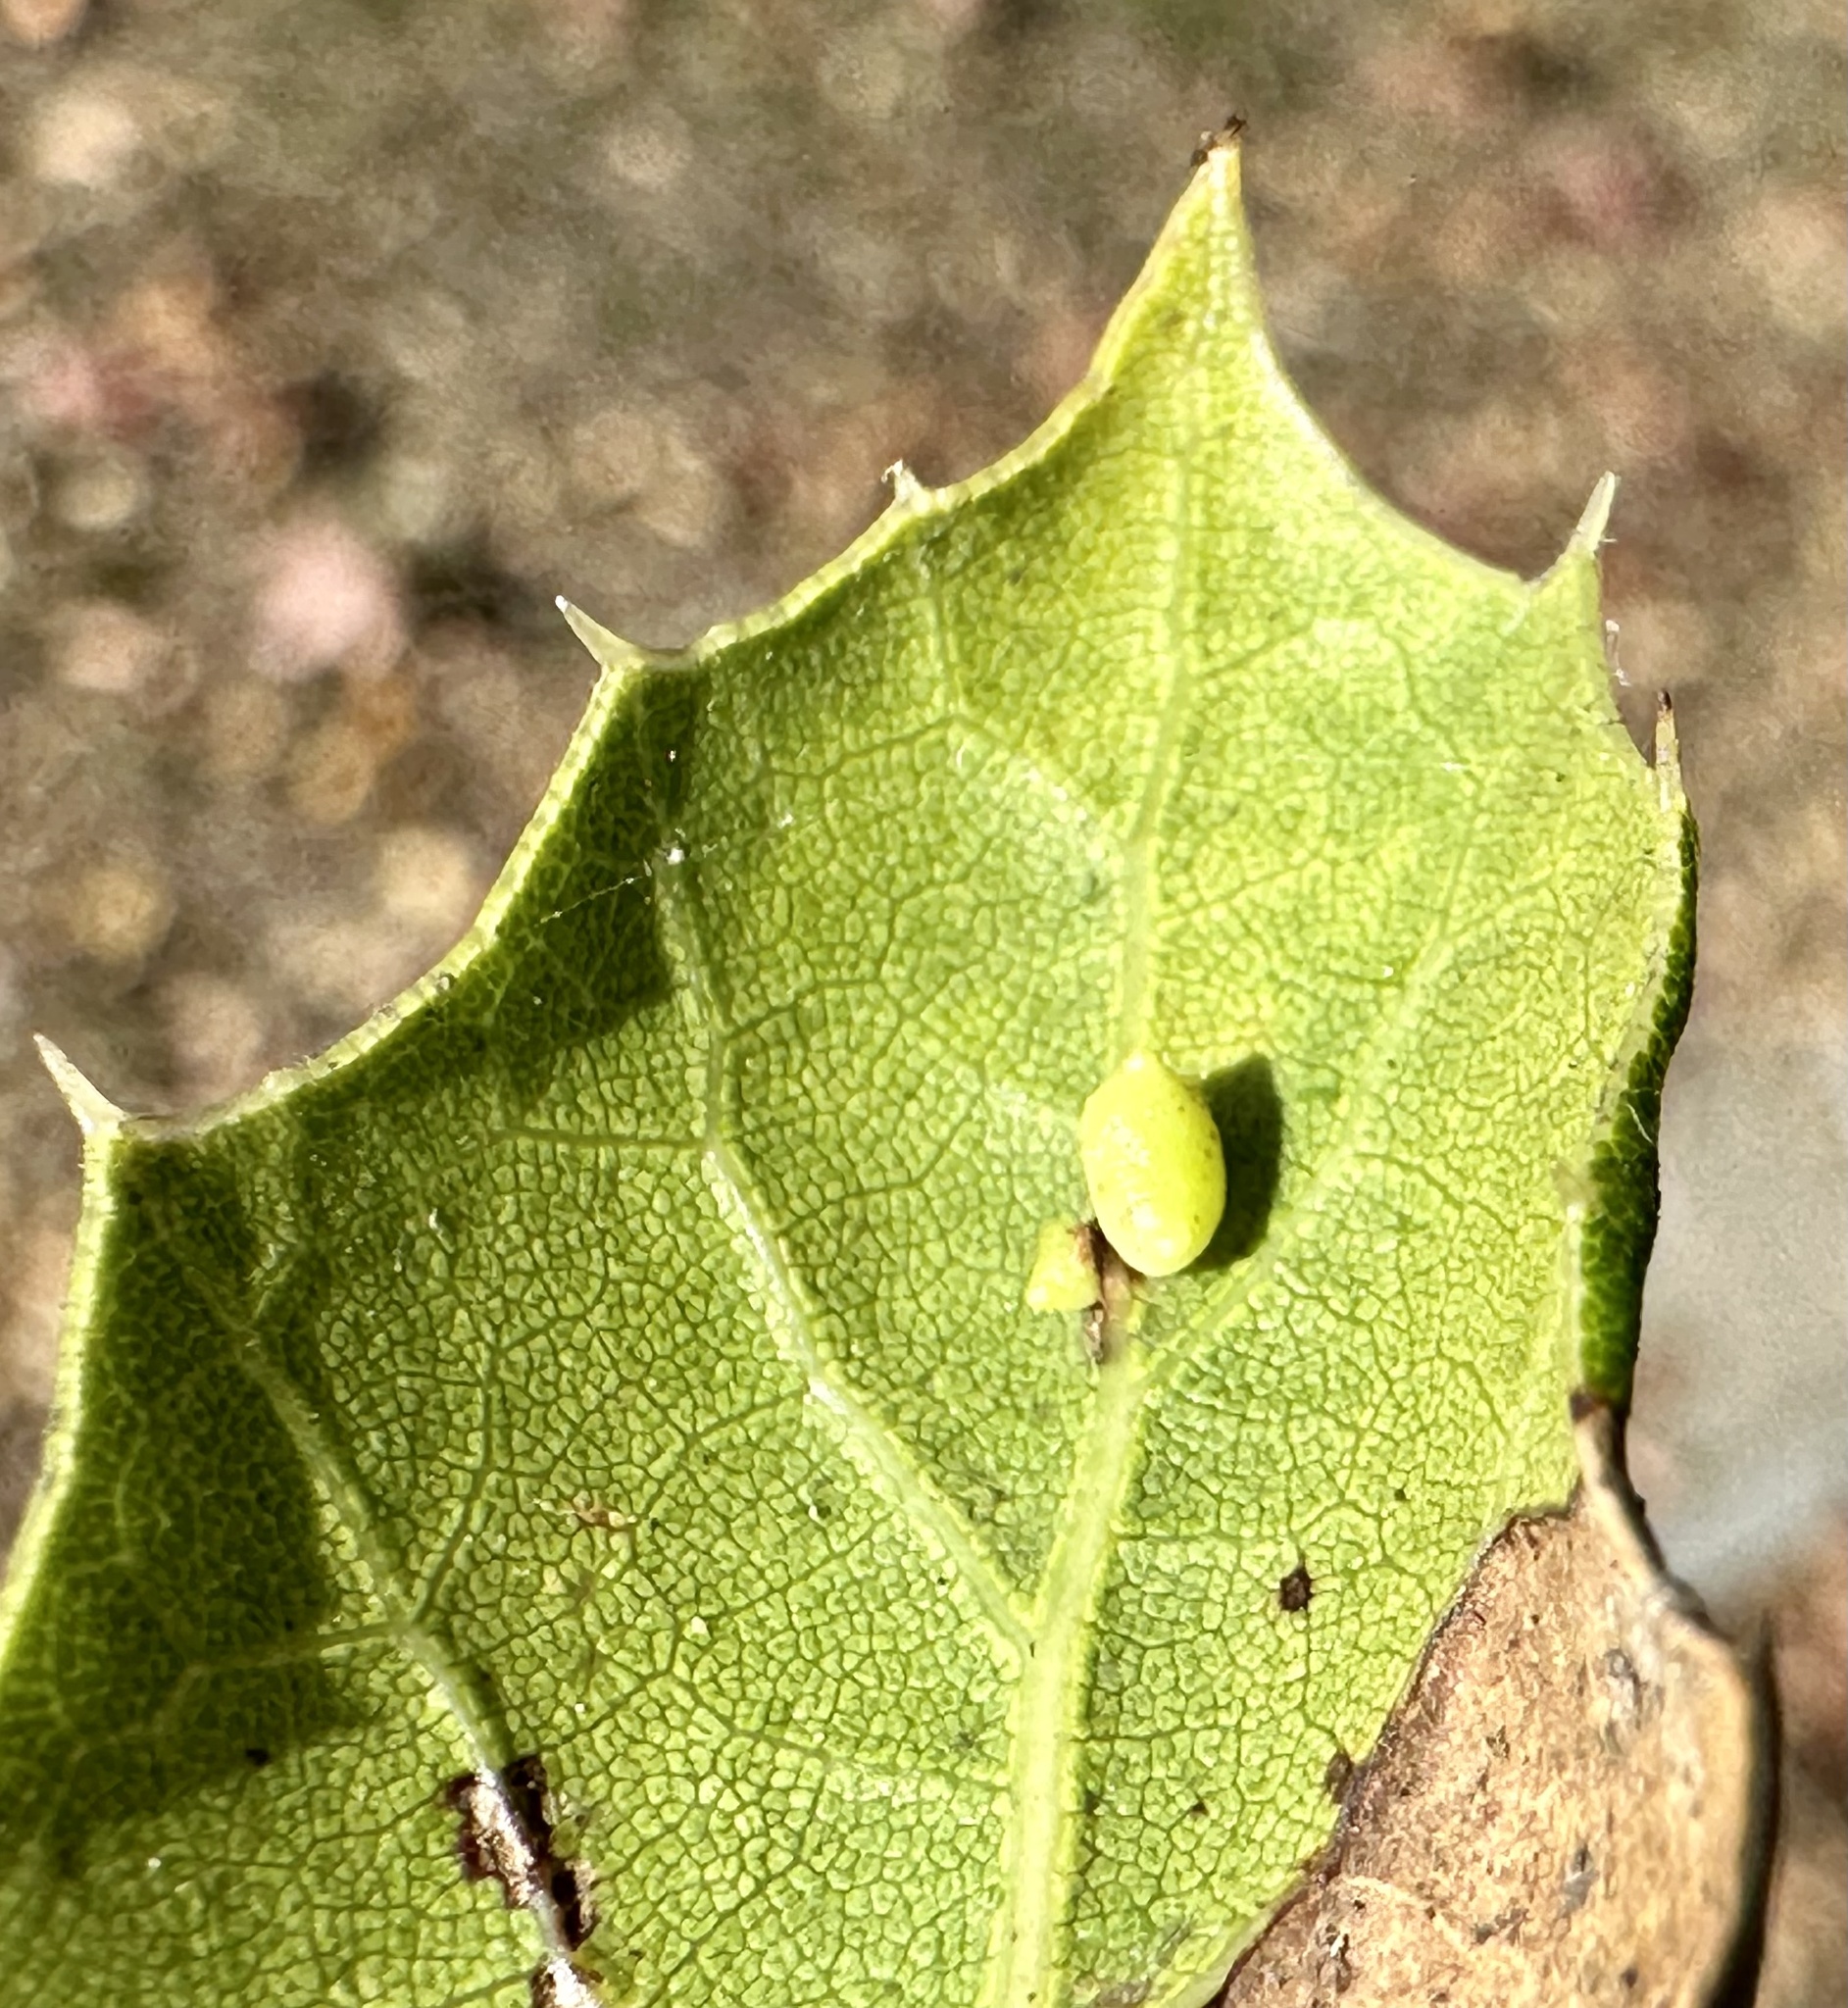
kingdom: Animalia
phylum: Arthropoda
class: Insecta
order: Hymenoptera
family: Cynipidae
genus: Dryocosmus
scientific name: Dryocosmus
